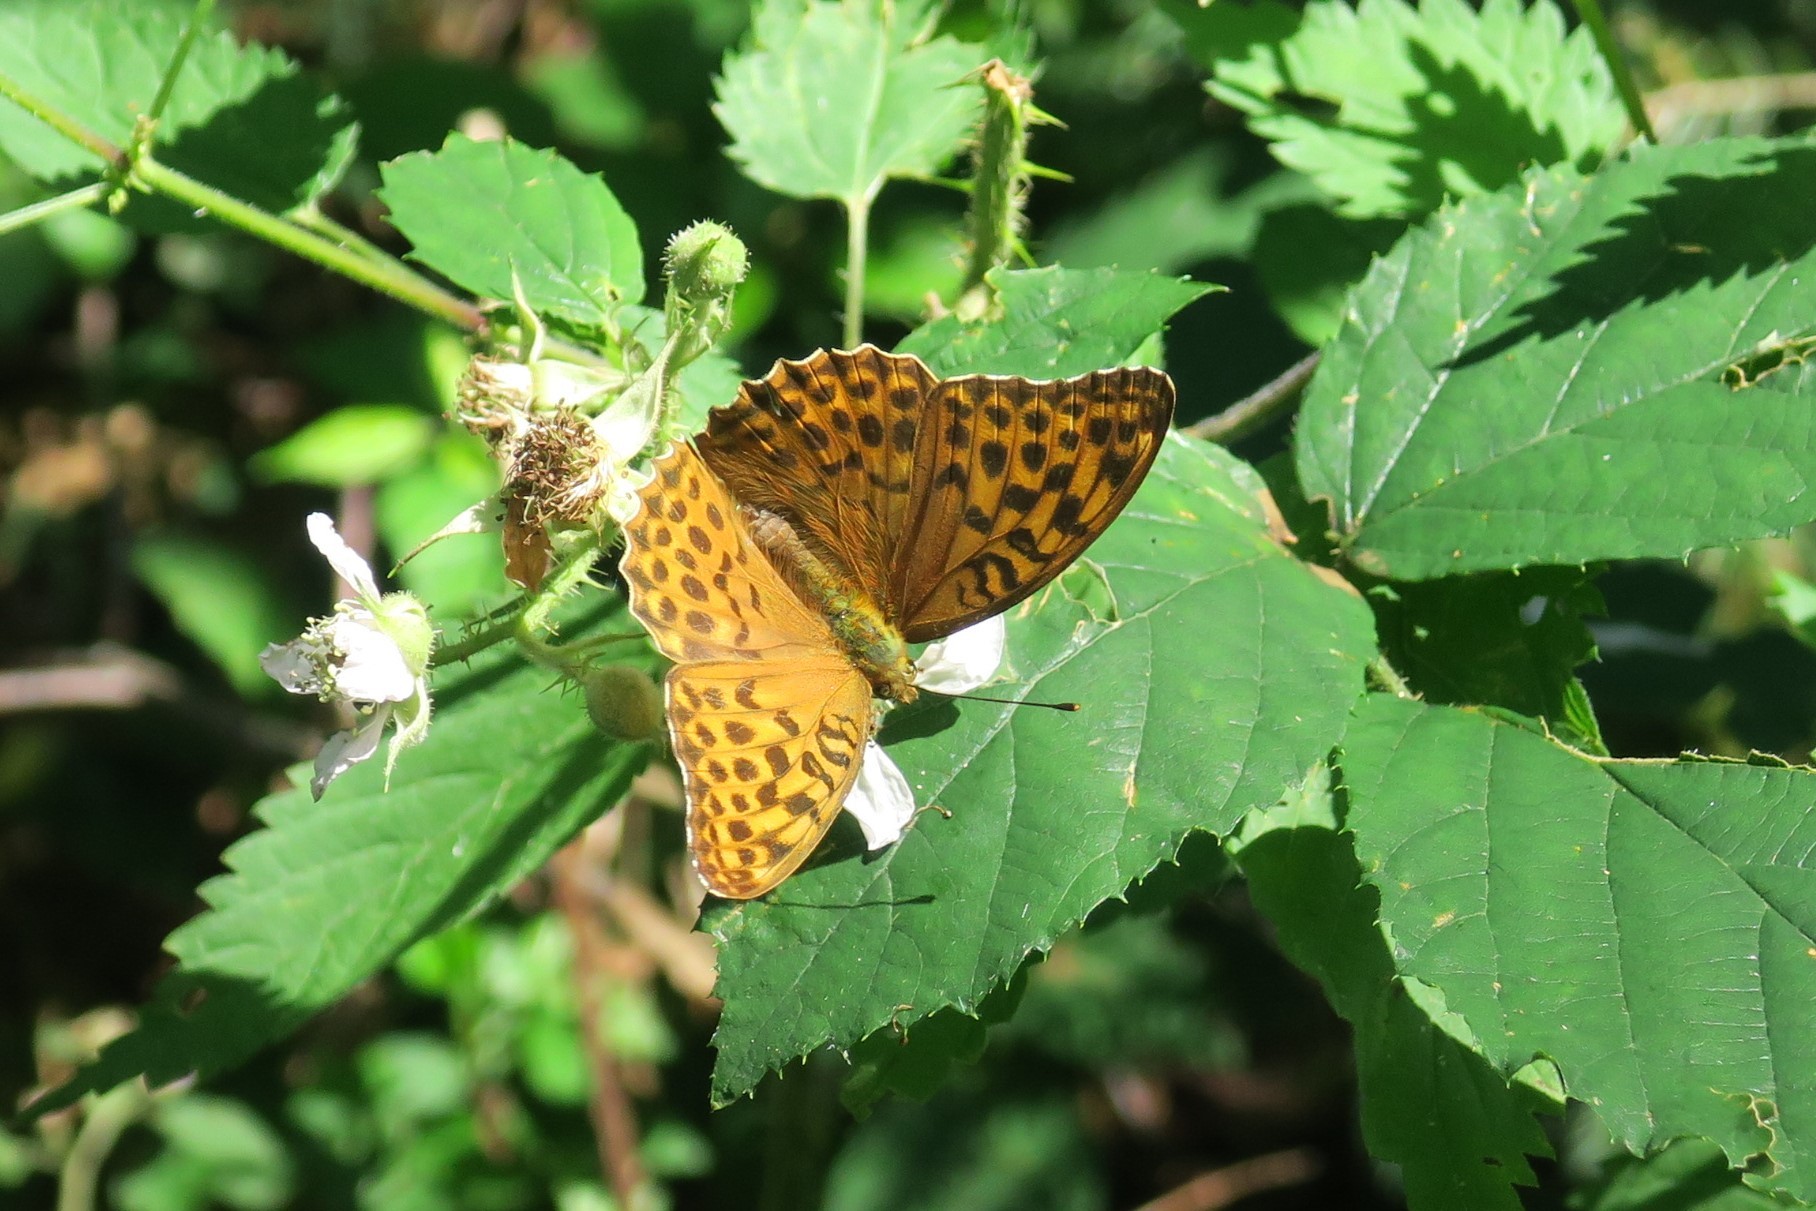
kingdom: Animalia
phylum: Arthropoda
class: Insecta
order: Lepidoptera
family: Nymphalidae
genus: Argynnis
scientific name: Argynnis paphia
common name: Silver-washed fritillary
